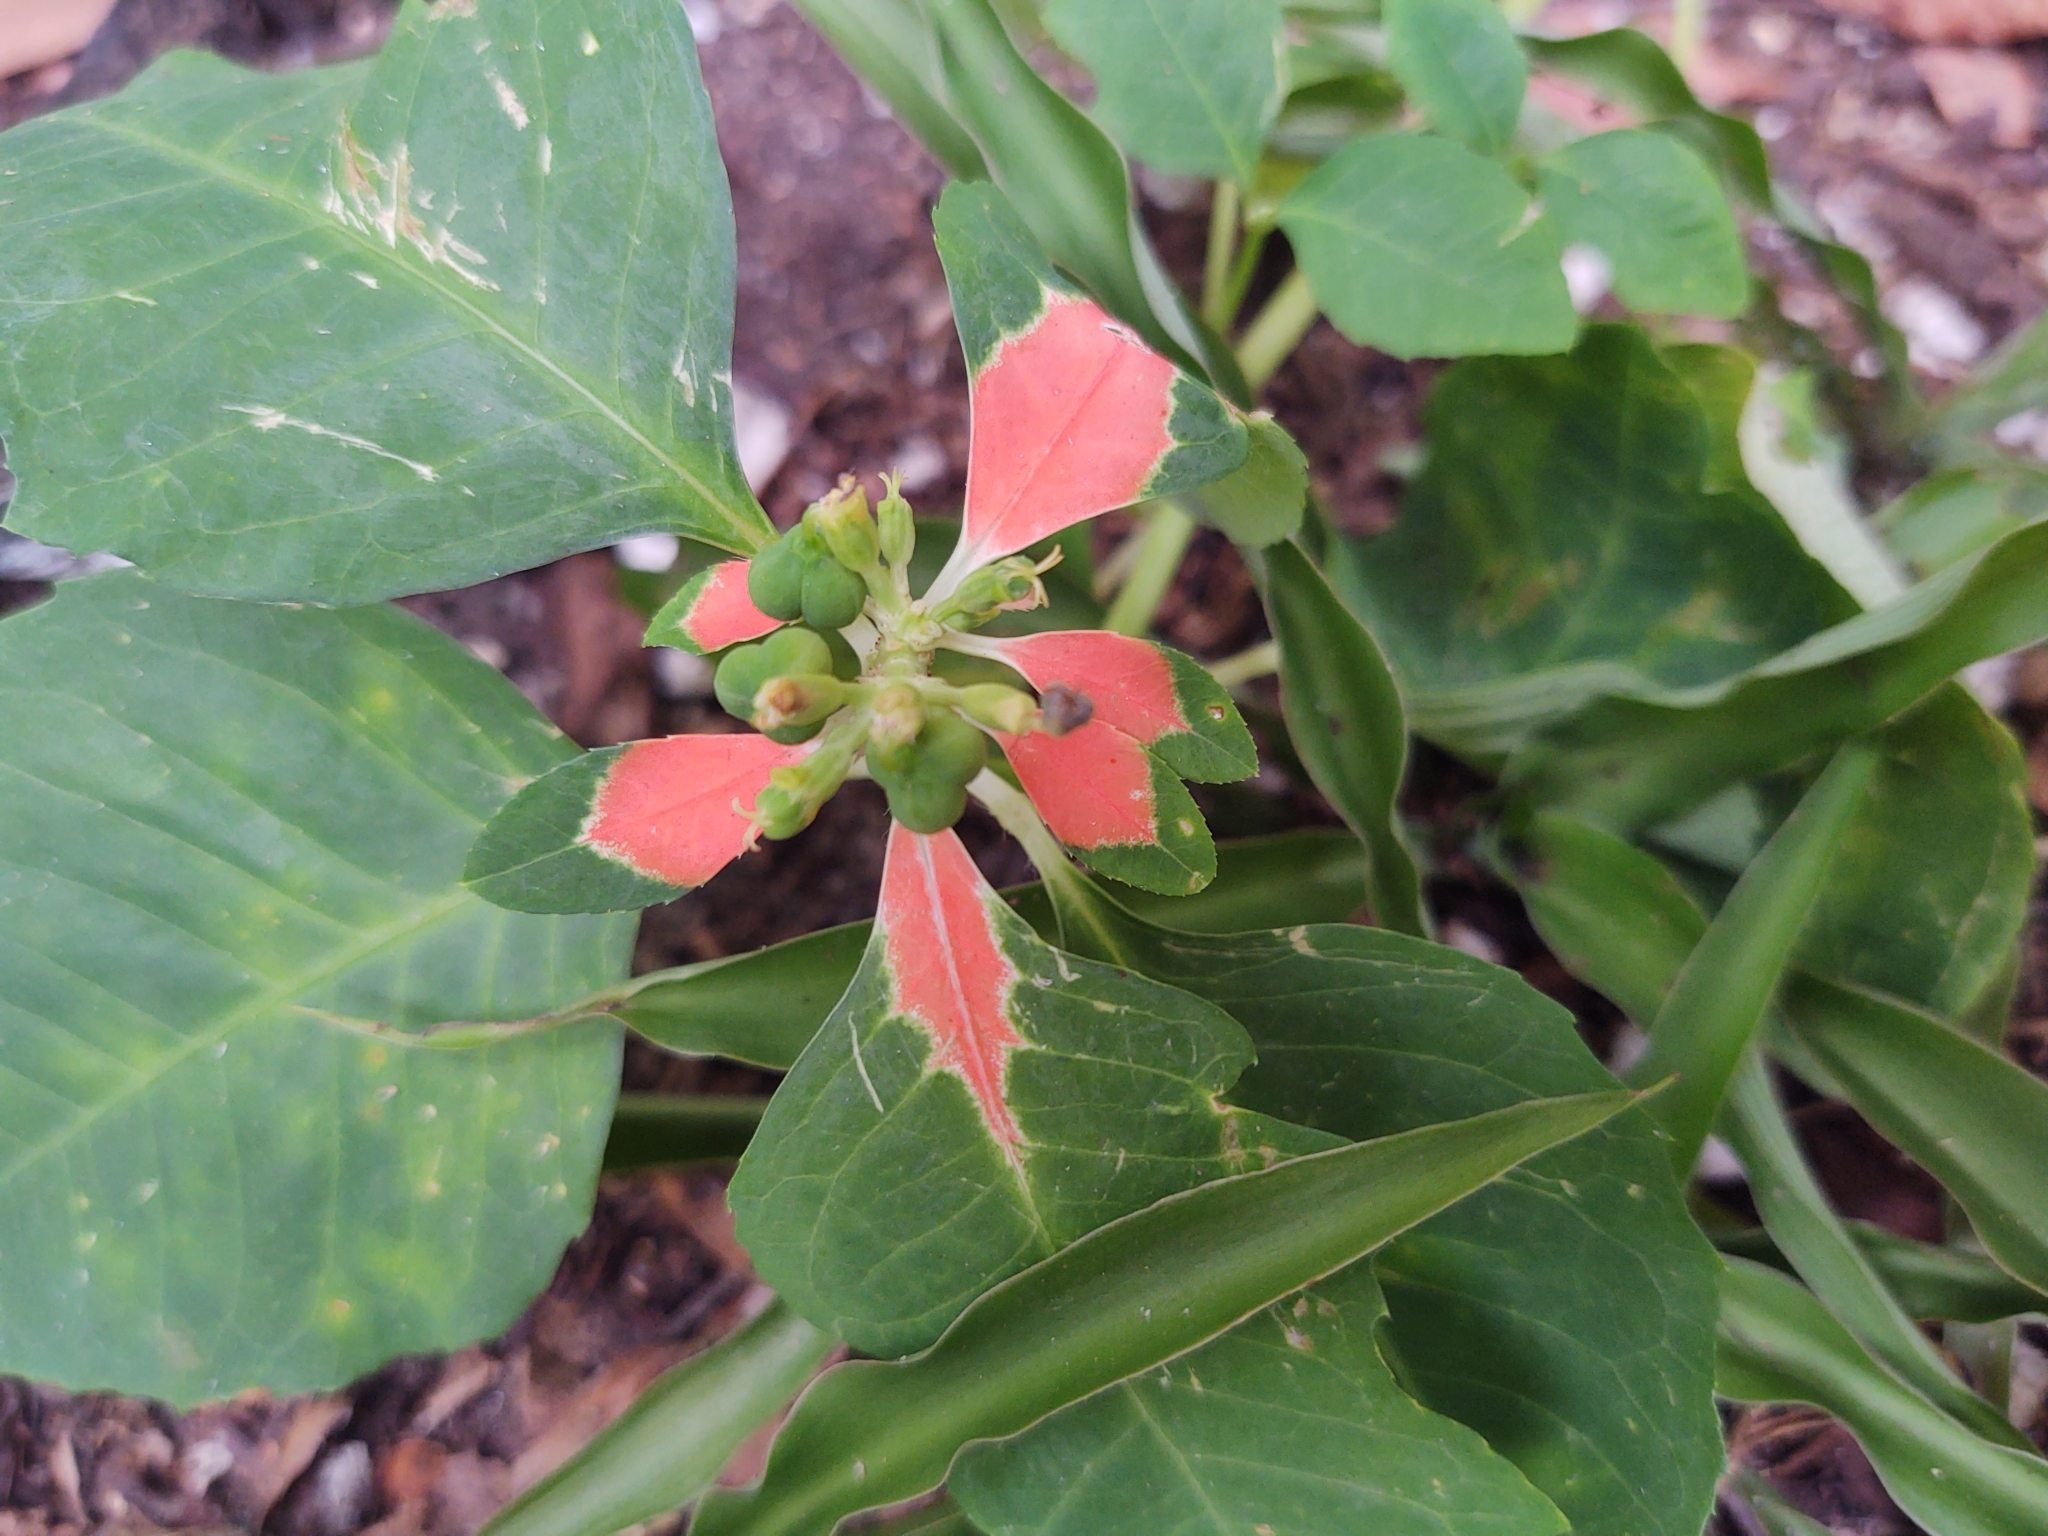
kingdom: Plantae
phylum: Tracheophyta
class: Magnoliopsida
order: Malpighiales
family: Euphorbiaceae
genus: Euphorbia
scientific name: Euphorbia heterophylla
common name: Mexican fireplant
